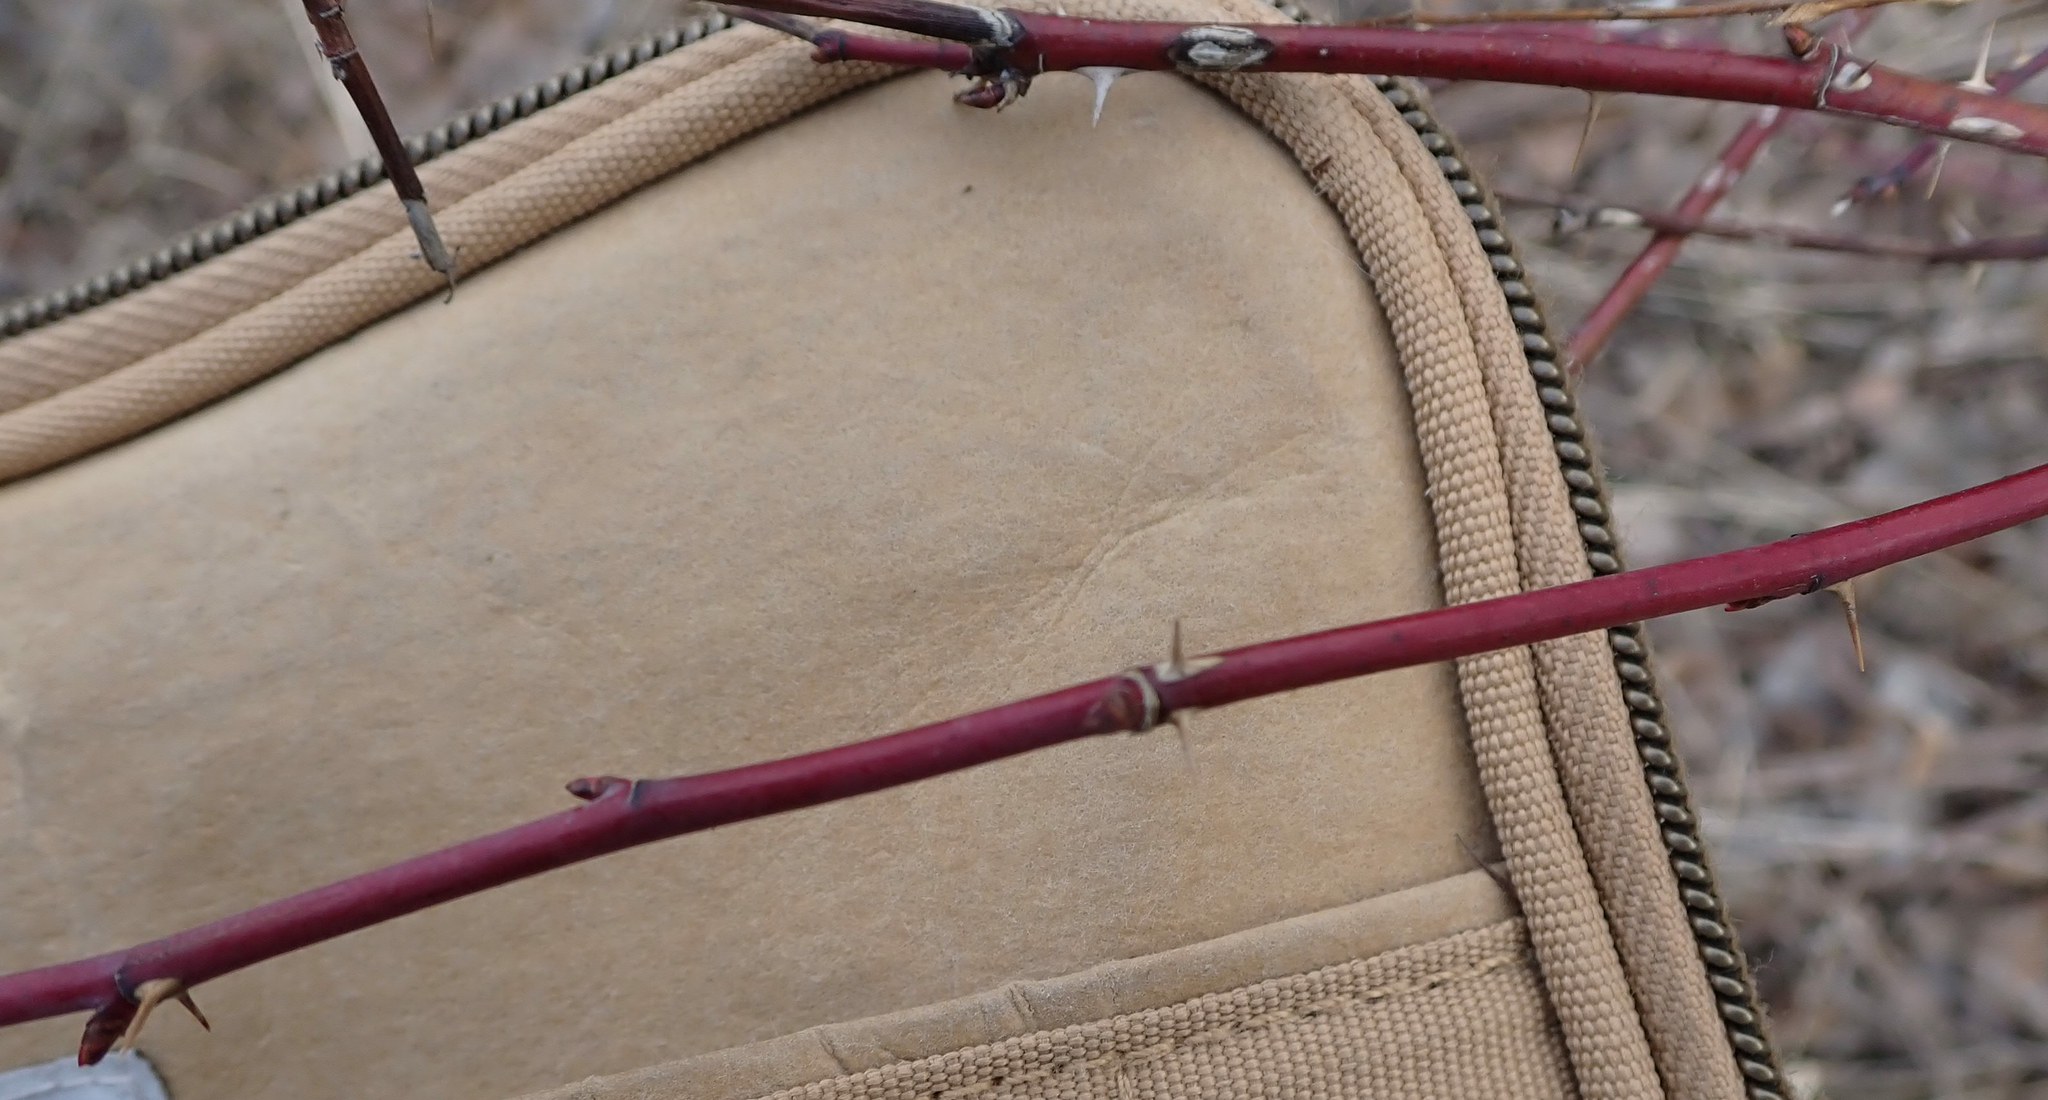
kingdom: Plantae
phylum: Tracheophyta
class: Magnoliopsida
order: Rosales
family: Rosaceae
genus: Rosa
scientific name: Rosa woodsii
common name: Woods's rose
